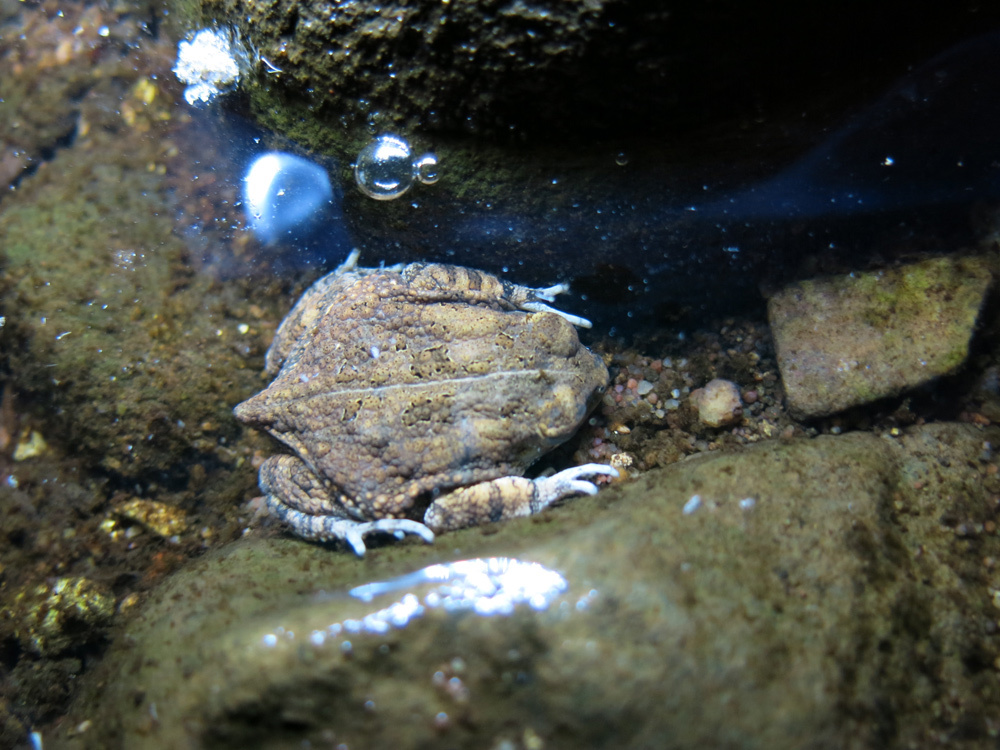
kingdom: Animalia
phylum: Chordata
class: Amphibia
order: Anura
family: Bufonidae
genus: Sclerophrys
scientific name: Sclerophrys gutturalis
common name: African common toad
